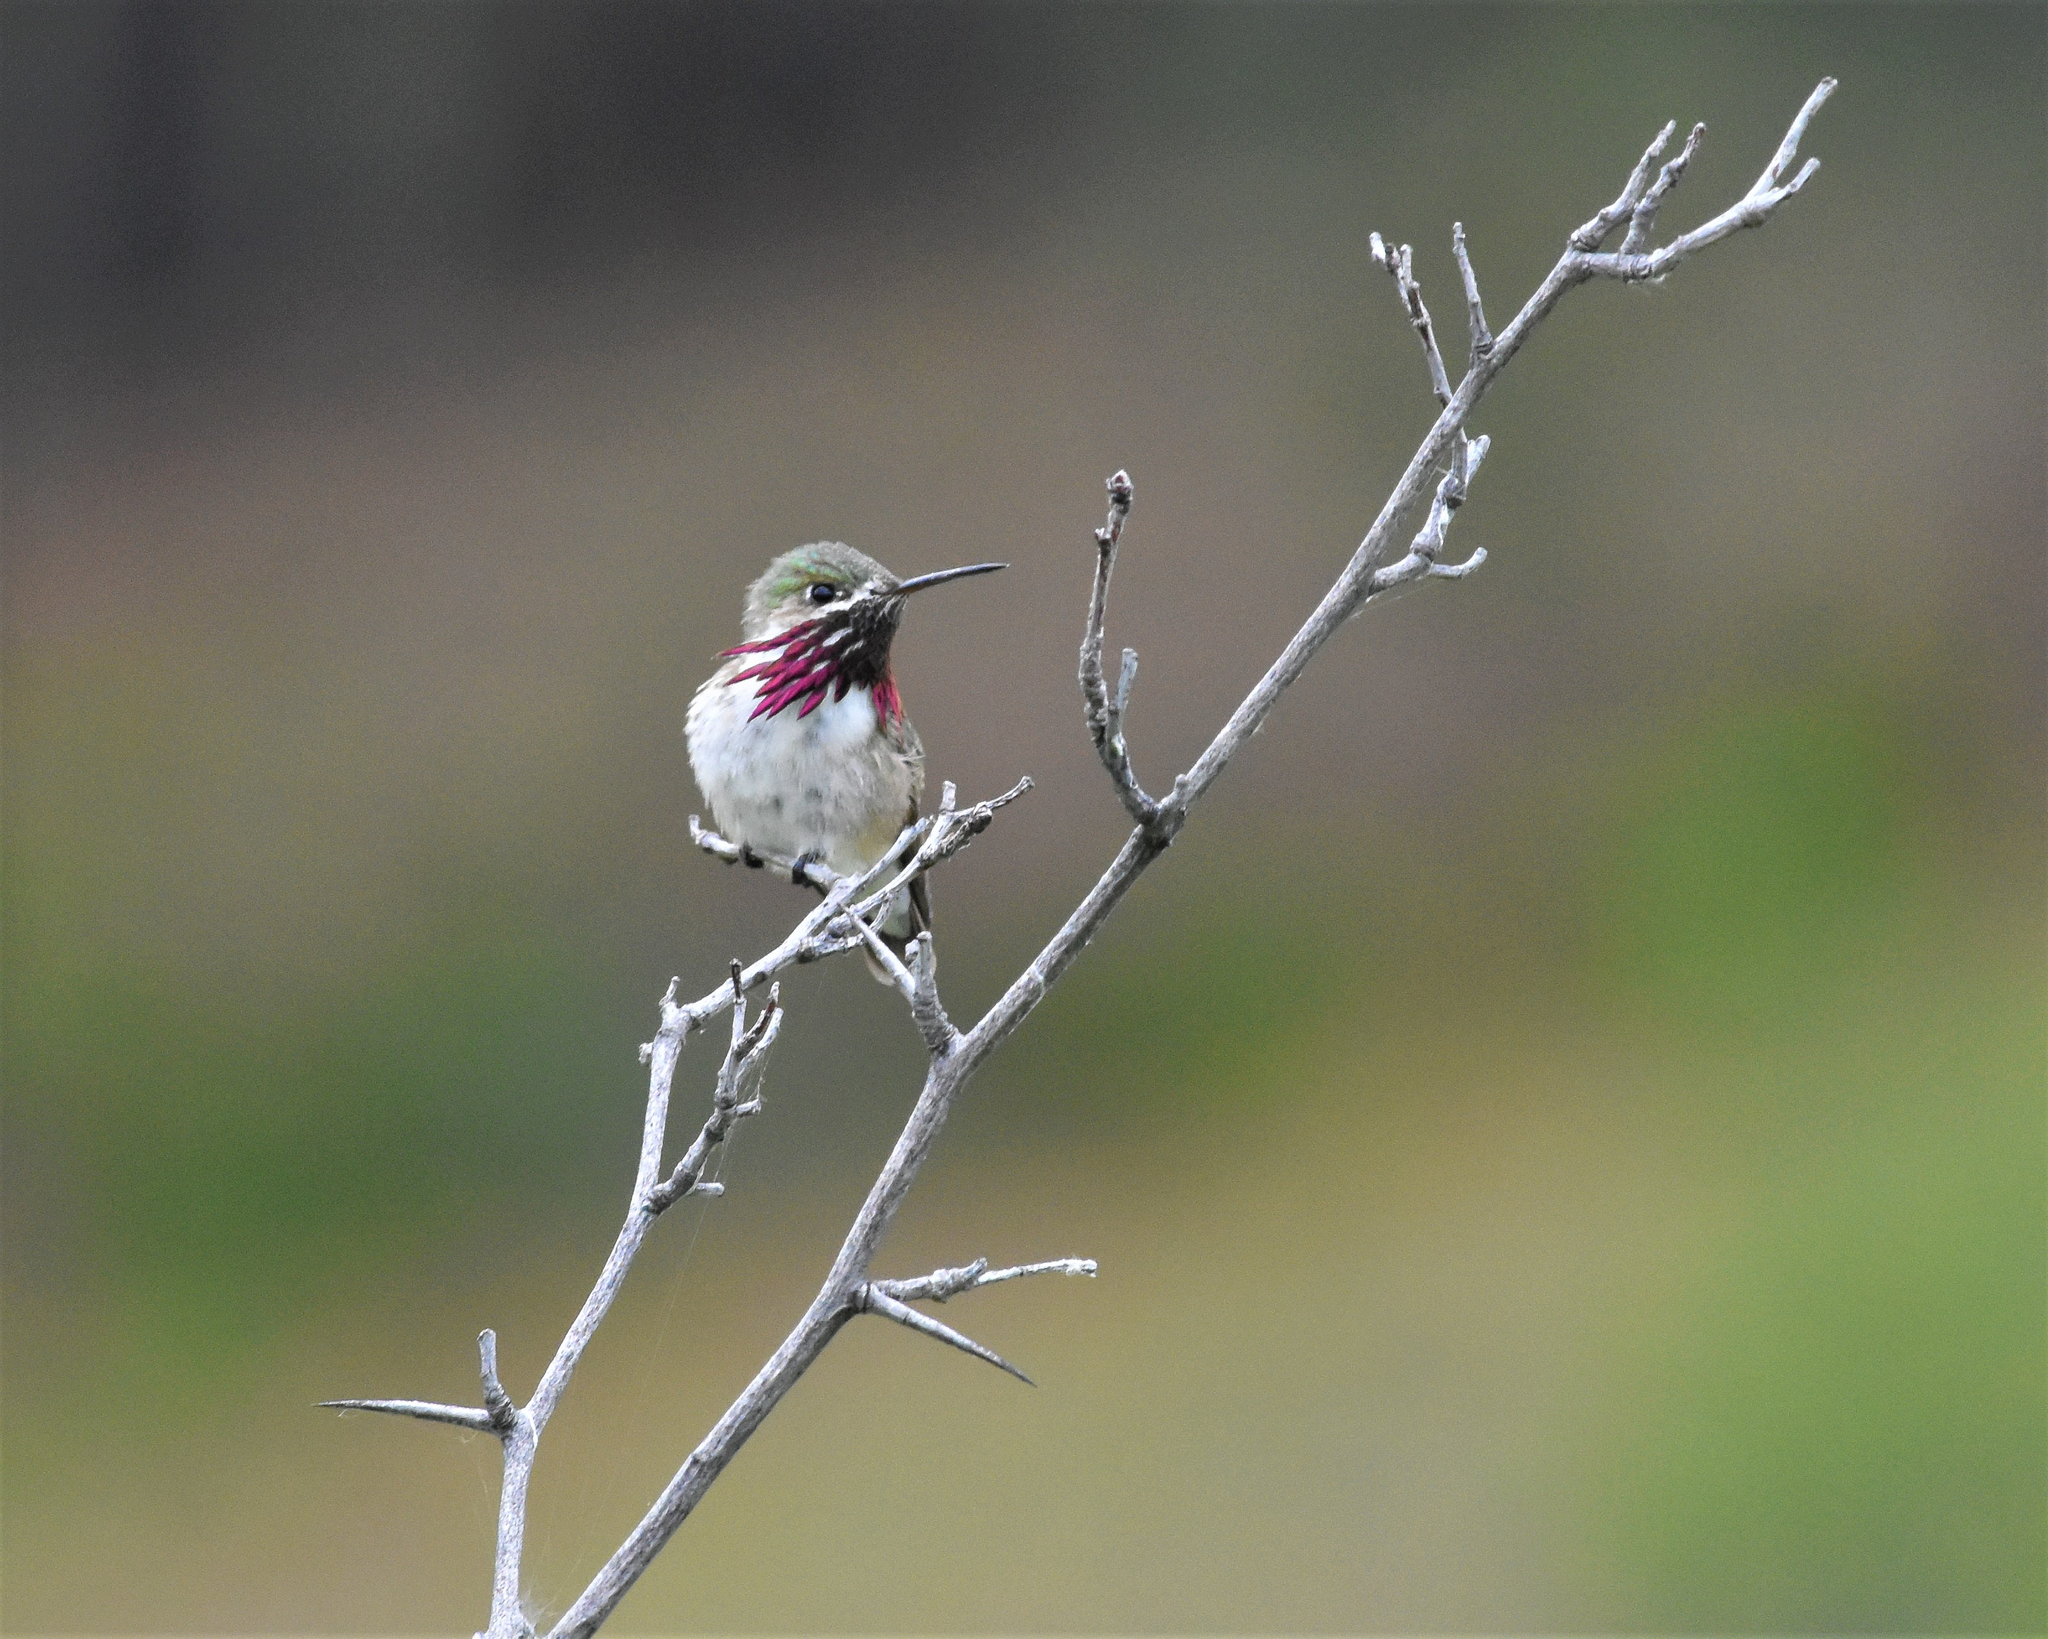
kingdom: Animalia
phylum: Chordata
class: Aves
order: Apodiformes
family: Trochilidae
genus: Selasphorus
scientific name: Selasphorus calliope
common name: Calliope hummingbird
